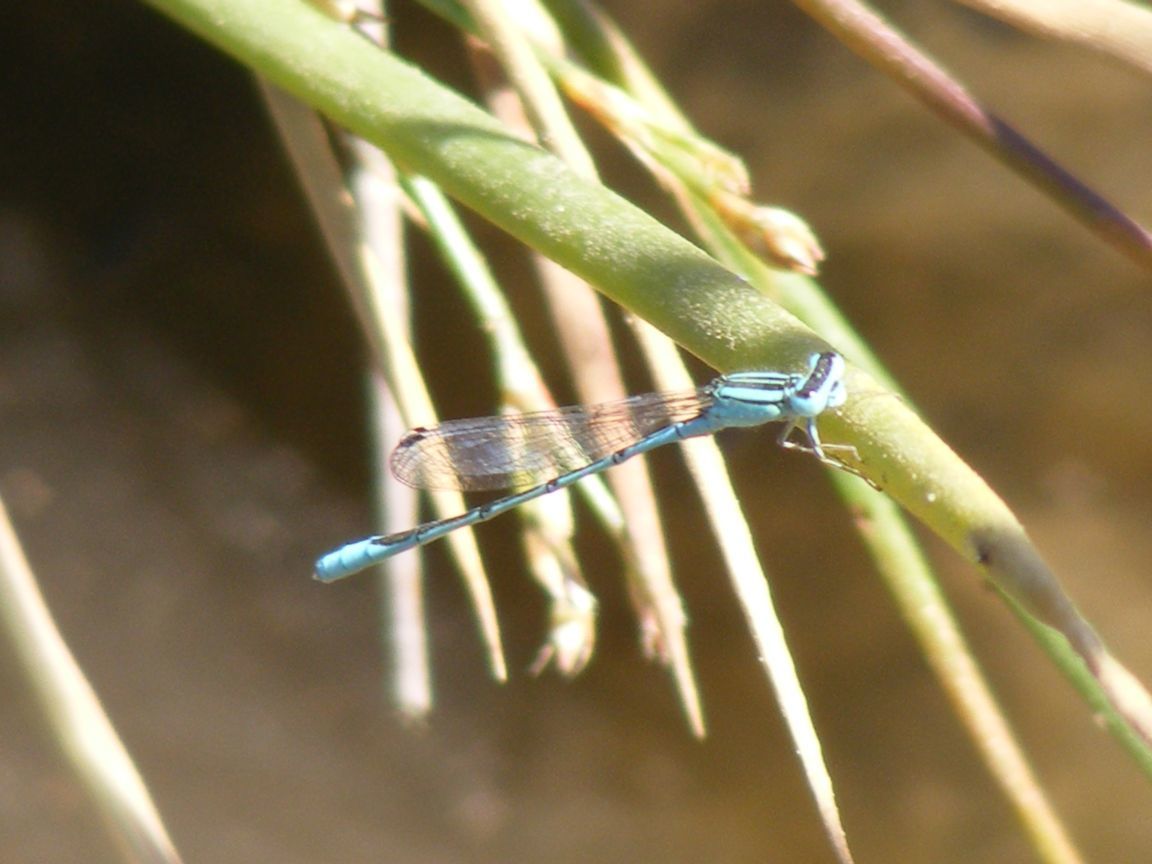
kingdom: Animalia
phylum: Arthropoda
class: Insecta
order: Odonata
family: Coenagrionidae
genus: Africallagma
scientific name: Africallagma glaucum
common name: Swamp bluet
